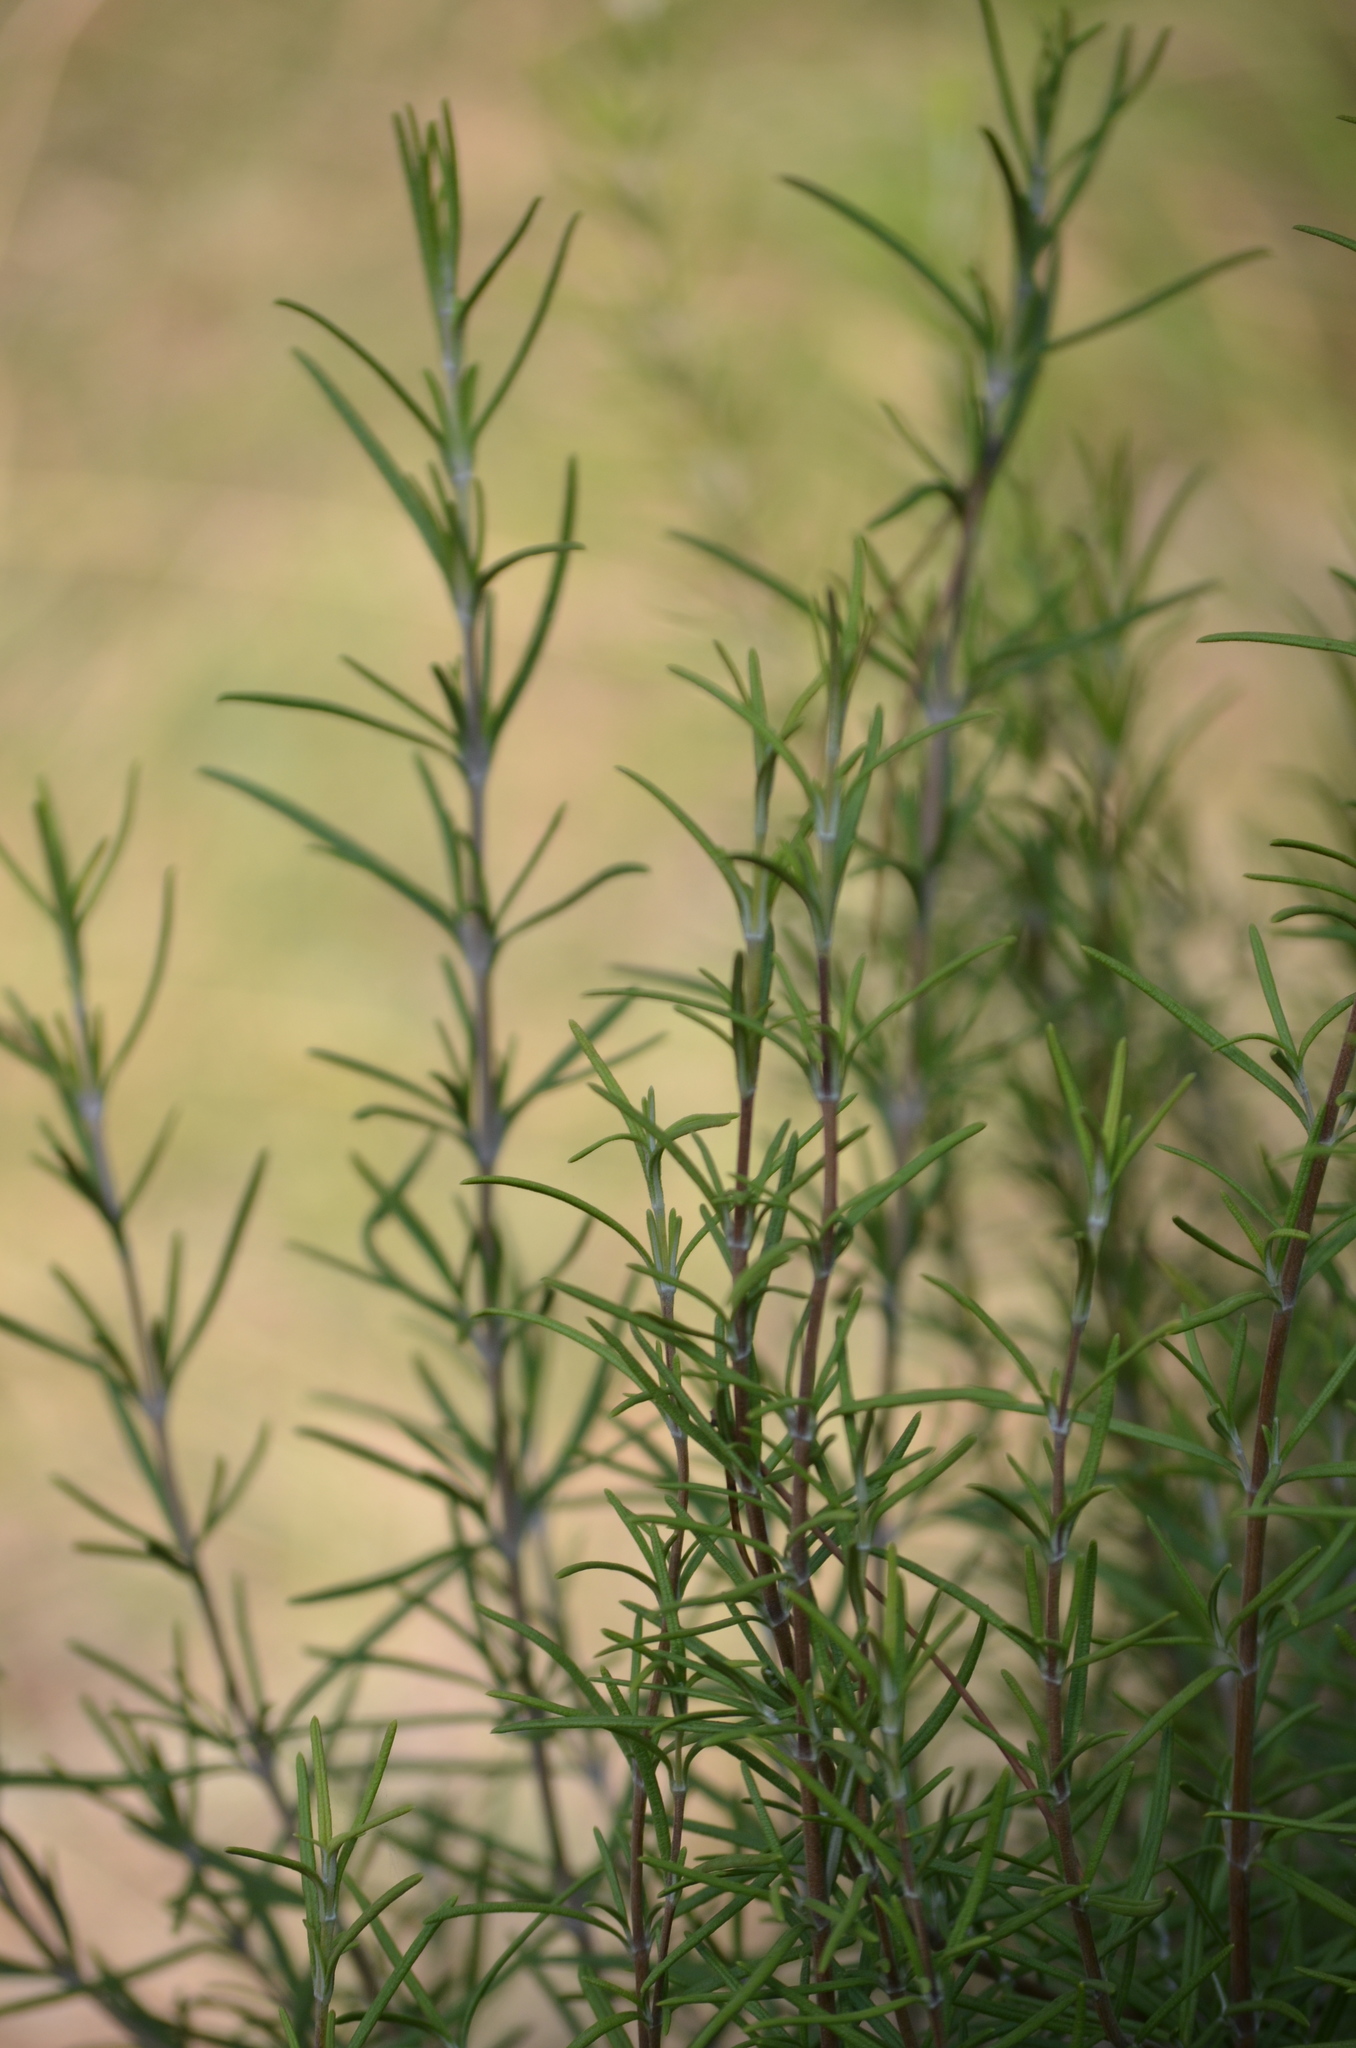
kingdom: Plantae
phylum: Tracheophyta
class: Magnoliopsida
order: Lamiales
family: Lamiaceae
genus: Salvia
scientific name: Salvia rosmarinus
